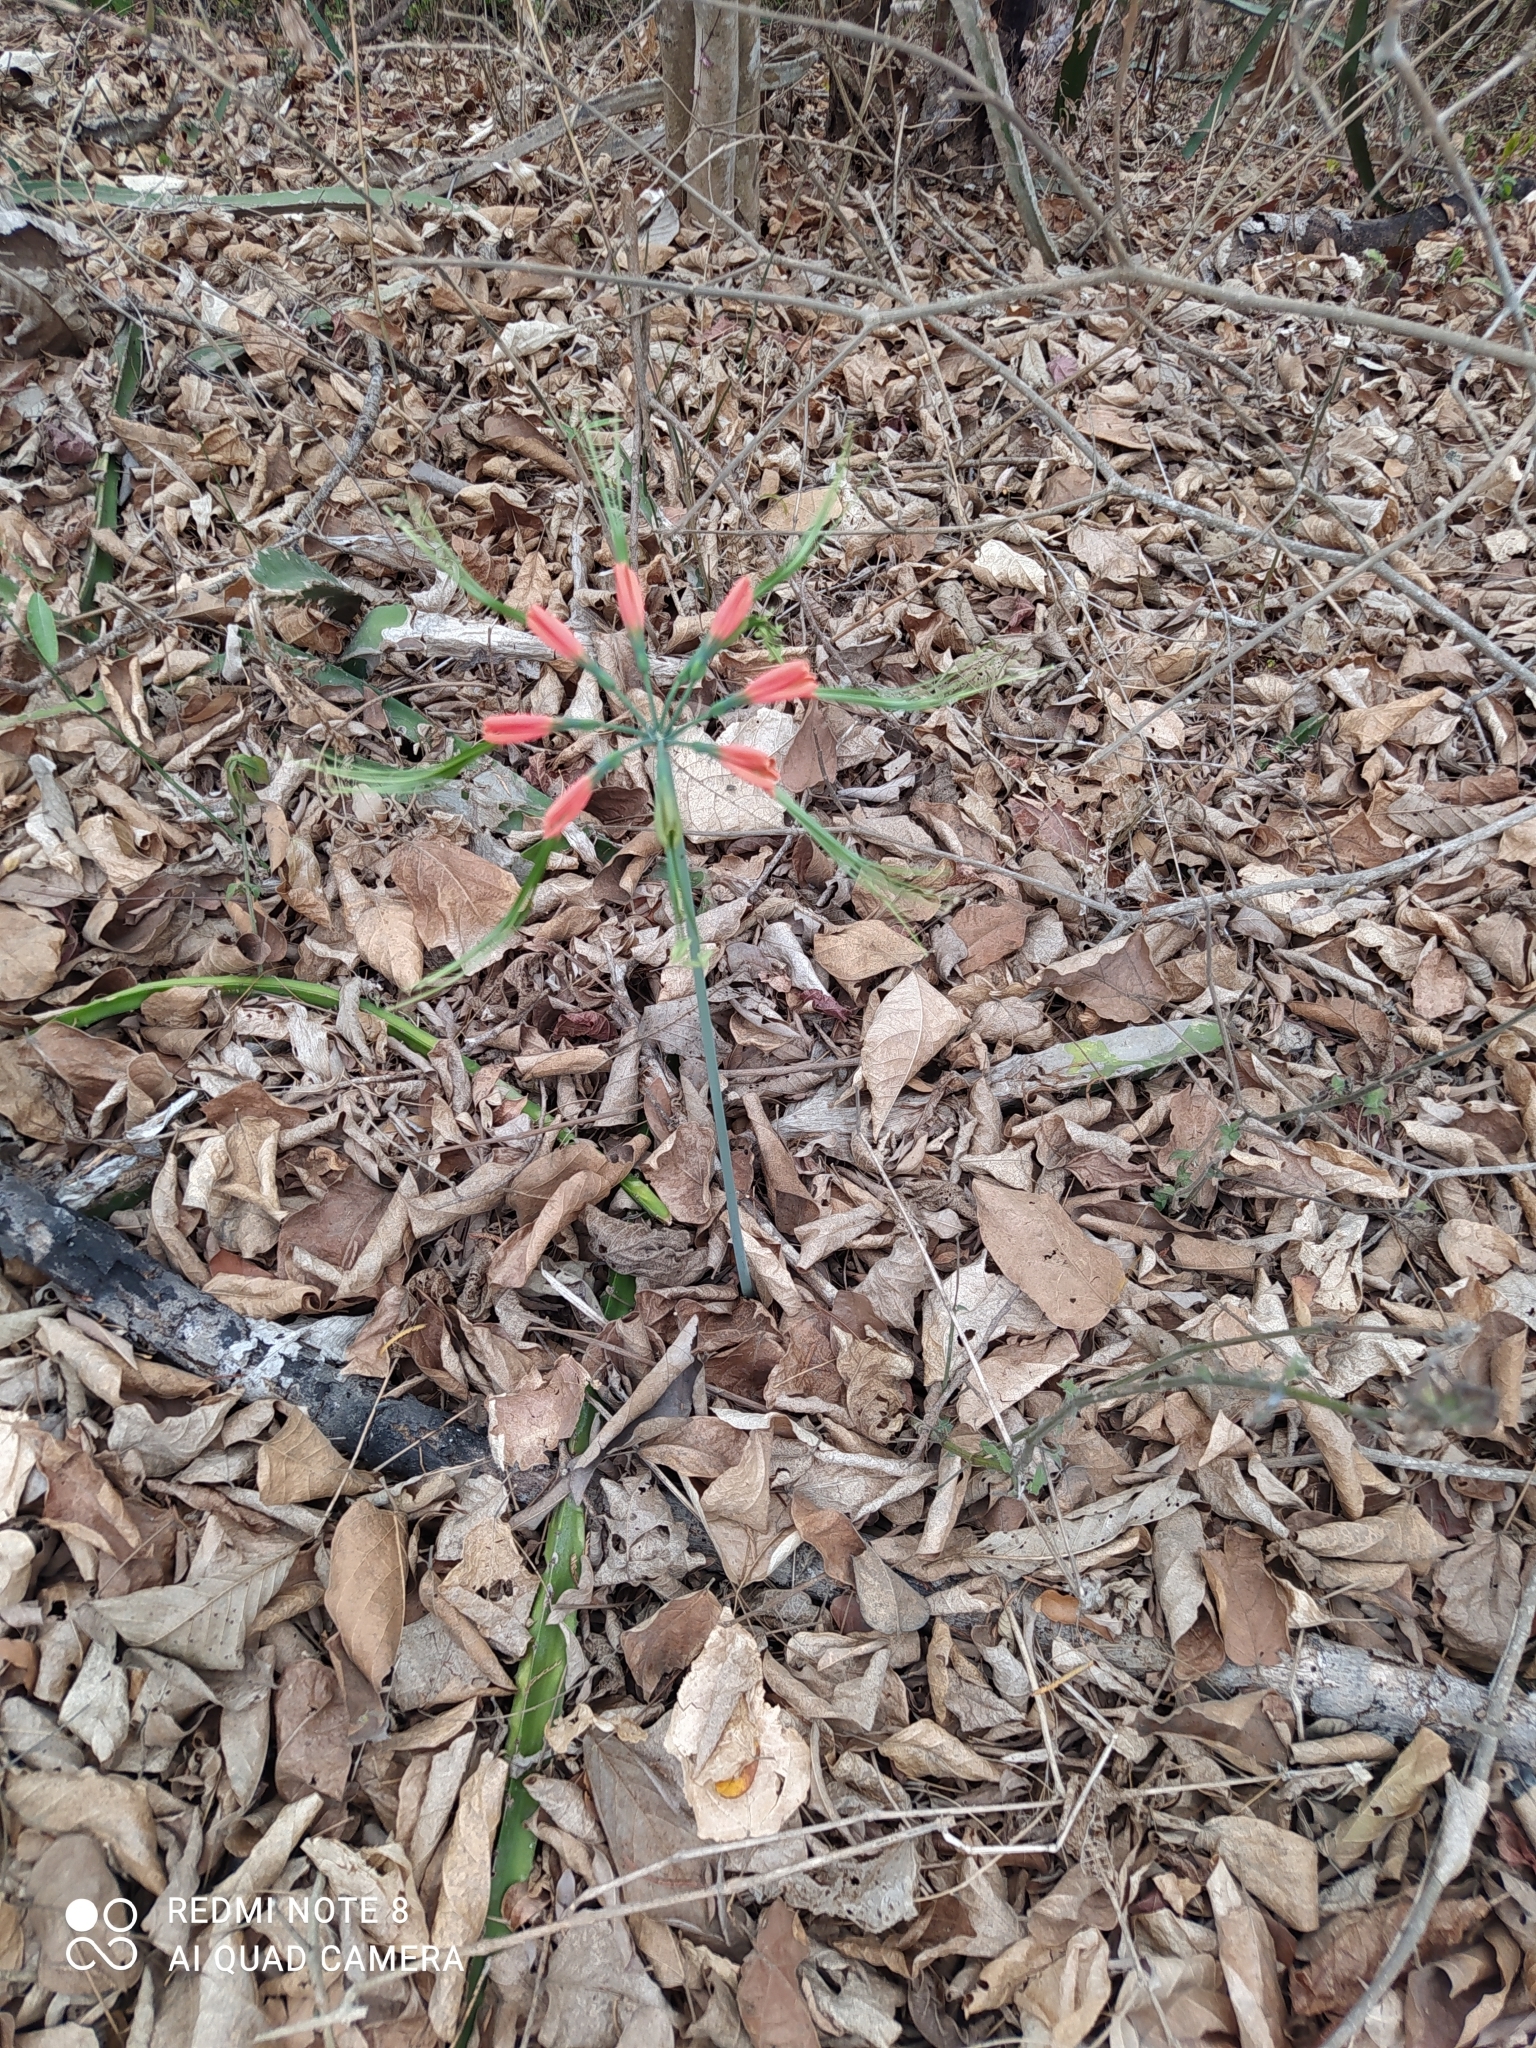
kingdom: Plantae
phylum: Tracheophyta
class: Liliopsida
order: Asparagales
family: Amaryllidaceae
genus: Eucrosia
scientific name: Eucrosia eucrosioides
